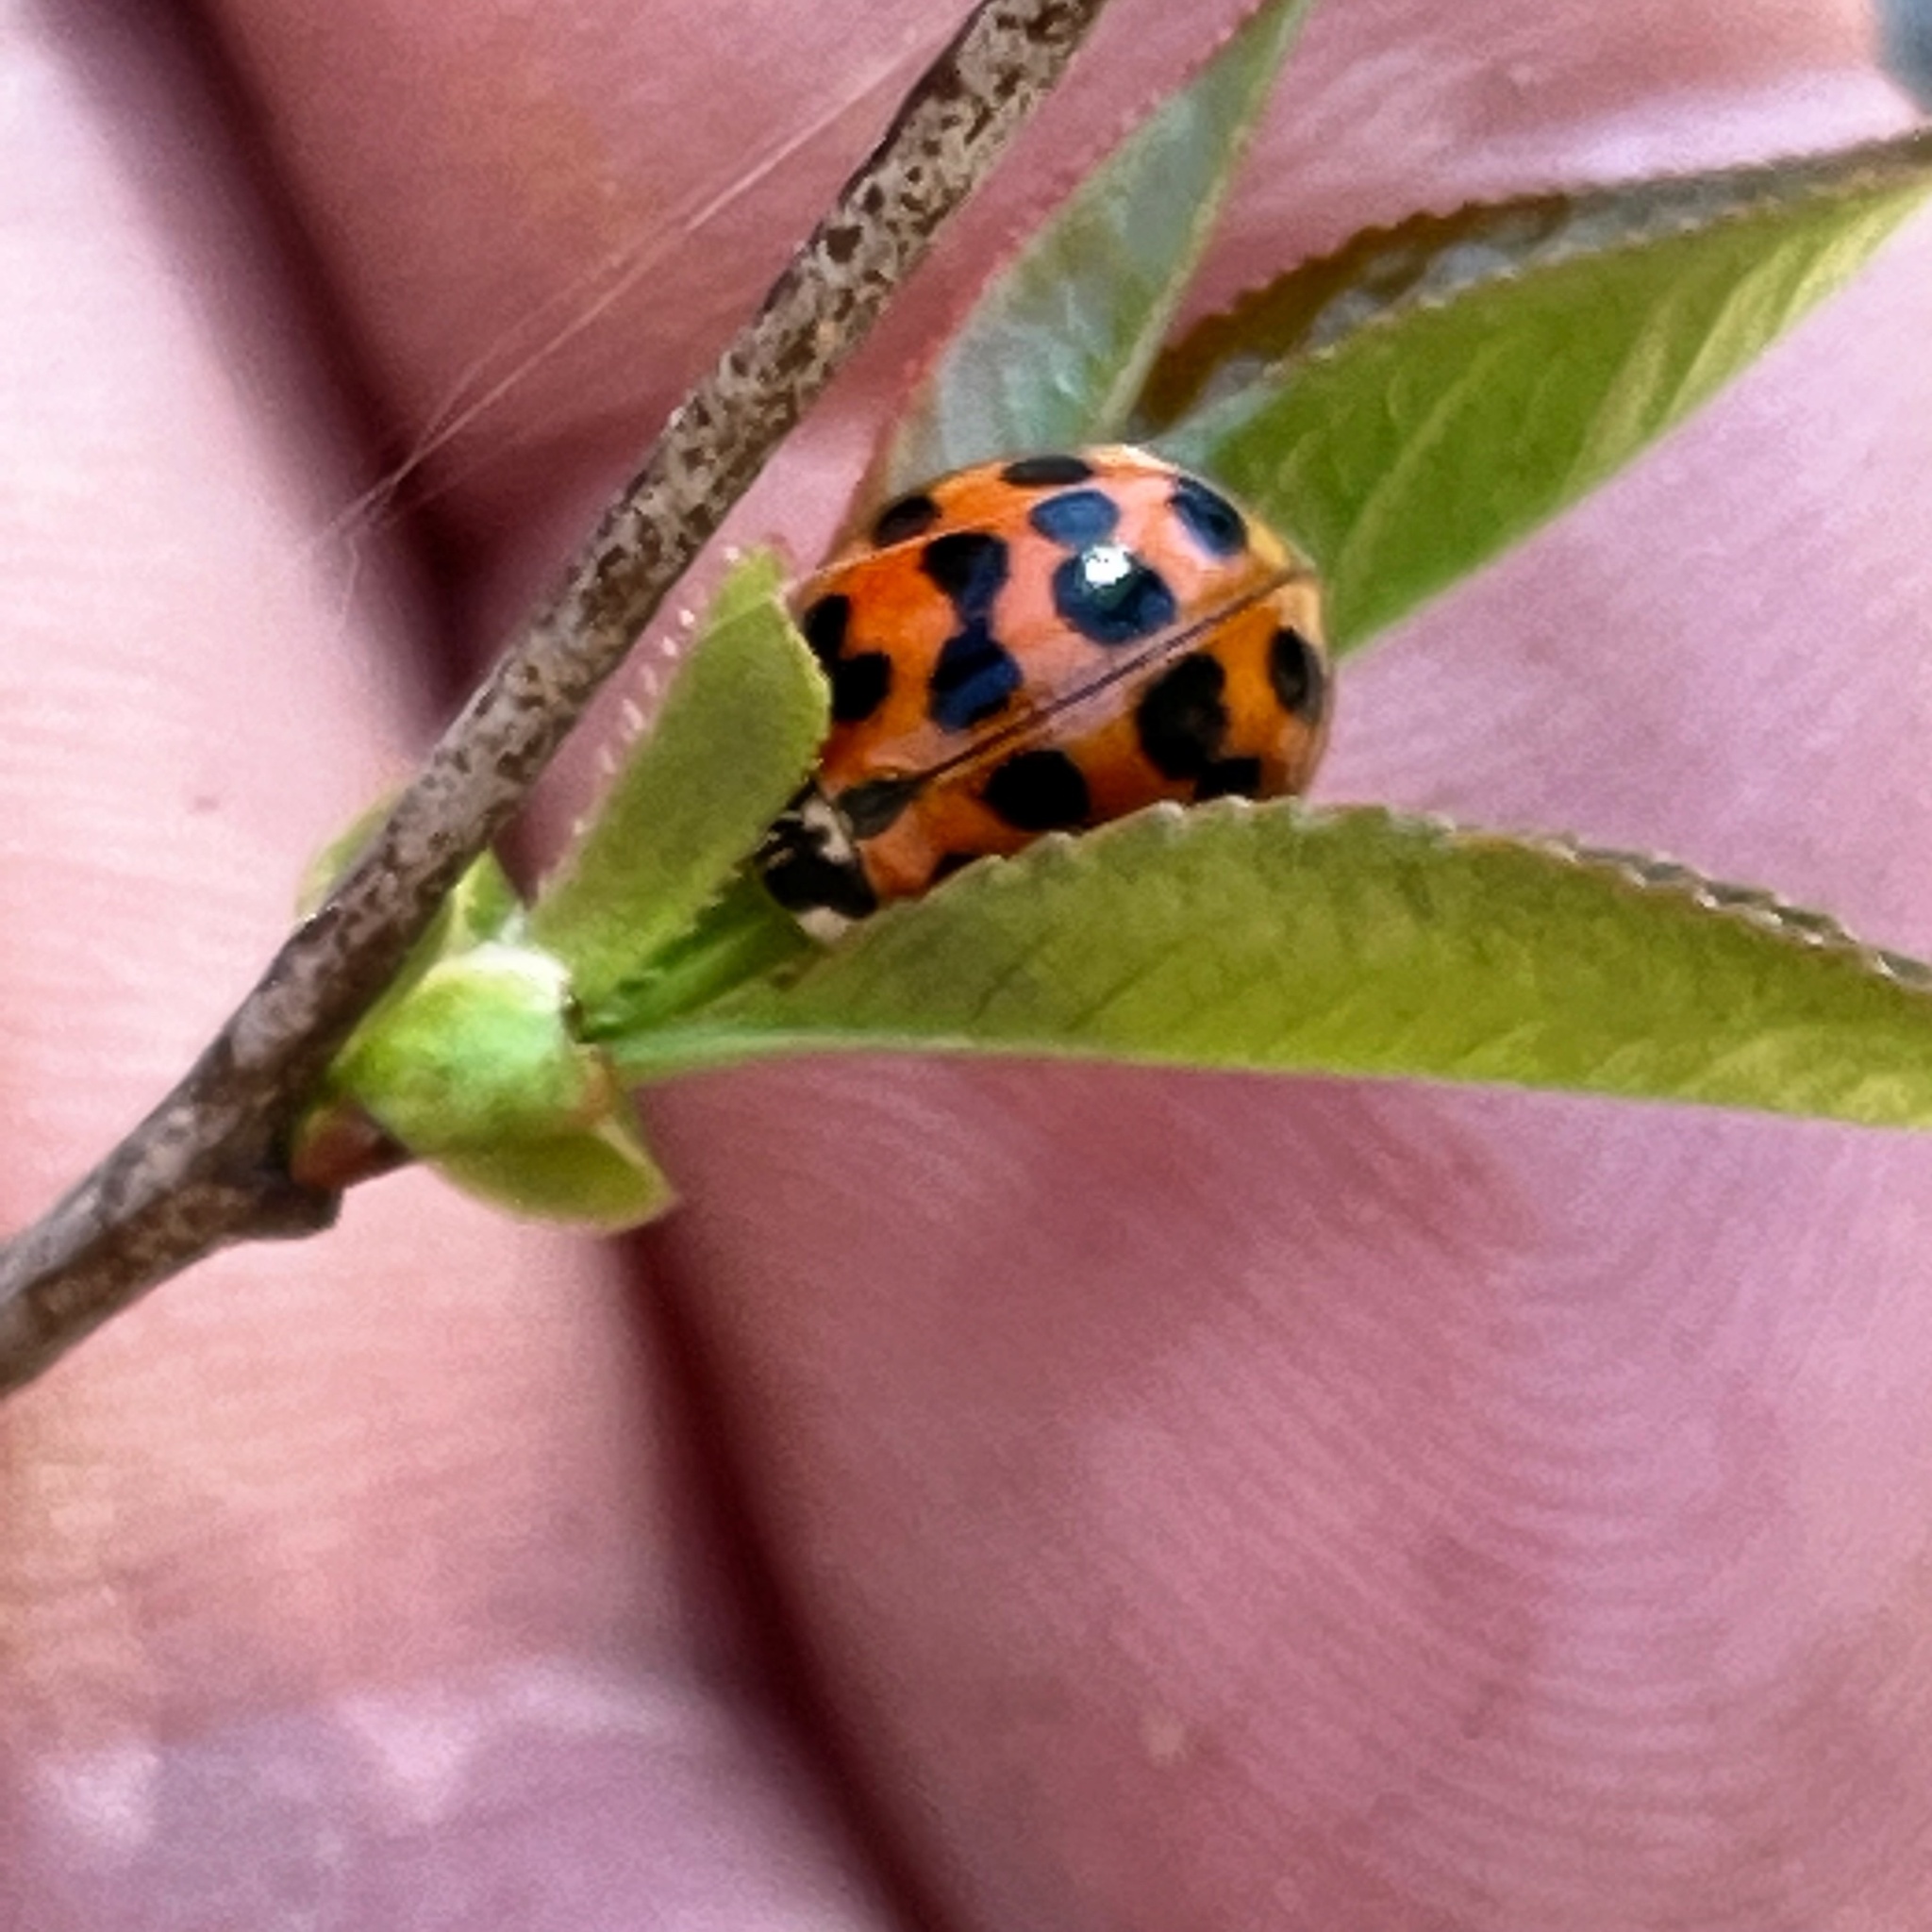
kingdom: Animalia
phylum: Arthropoda
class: Insecta
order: Coleoptera
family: Coccinellidae
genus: Harmonia
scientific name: Harmonia axyridis
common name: Harlequin ladybird
